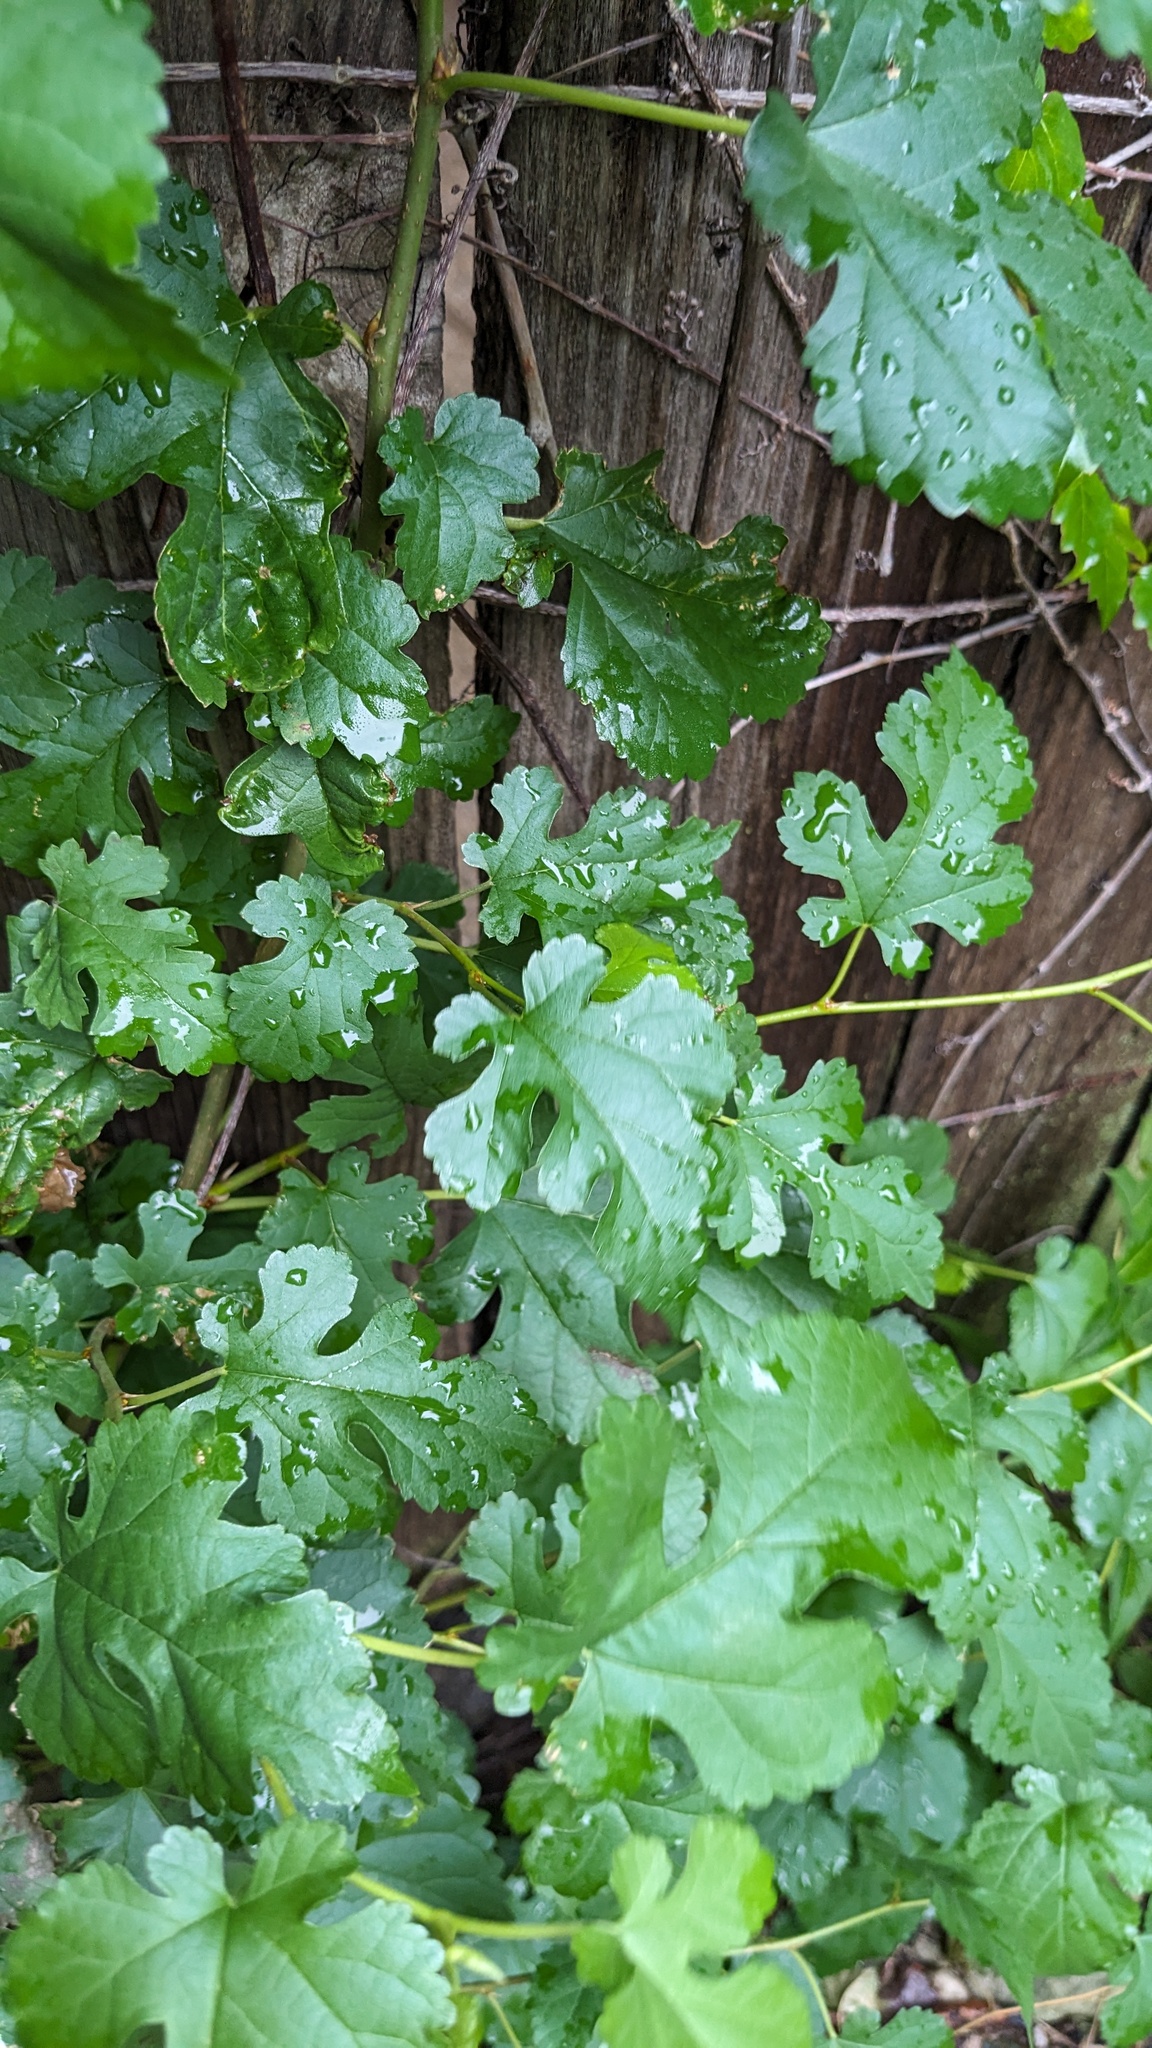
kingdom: Plantae
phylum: Tracheophyta
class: Magnoliopsida
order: Rosales
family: Moraceae
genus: Morus
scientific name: Morus alba
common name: White mulberry
